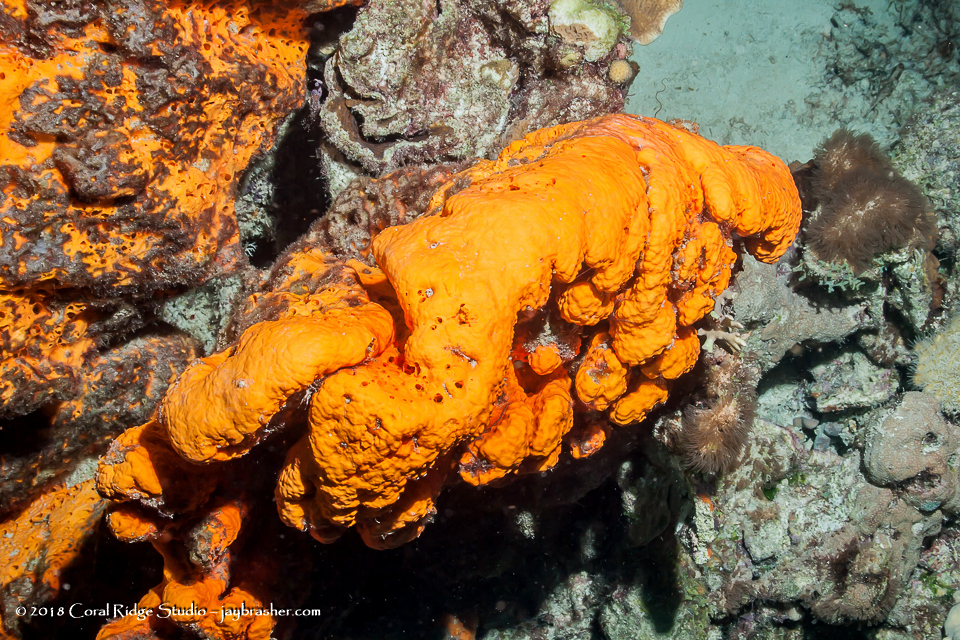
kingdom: Animalia
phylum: Porifera
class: Demospongiae
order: Agelasida
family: Agelasidae
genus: Agelas
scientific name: Agelas clathrodes
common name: Orange elephant ear sponge
